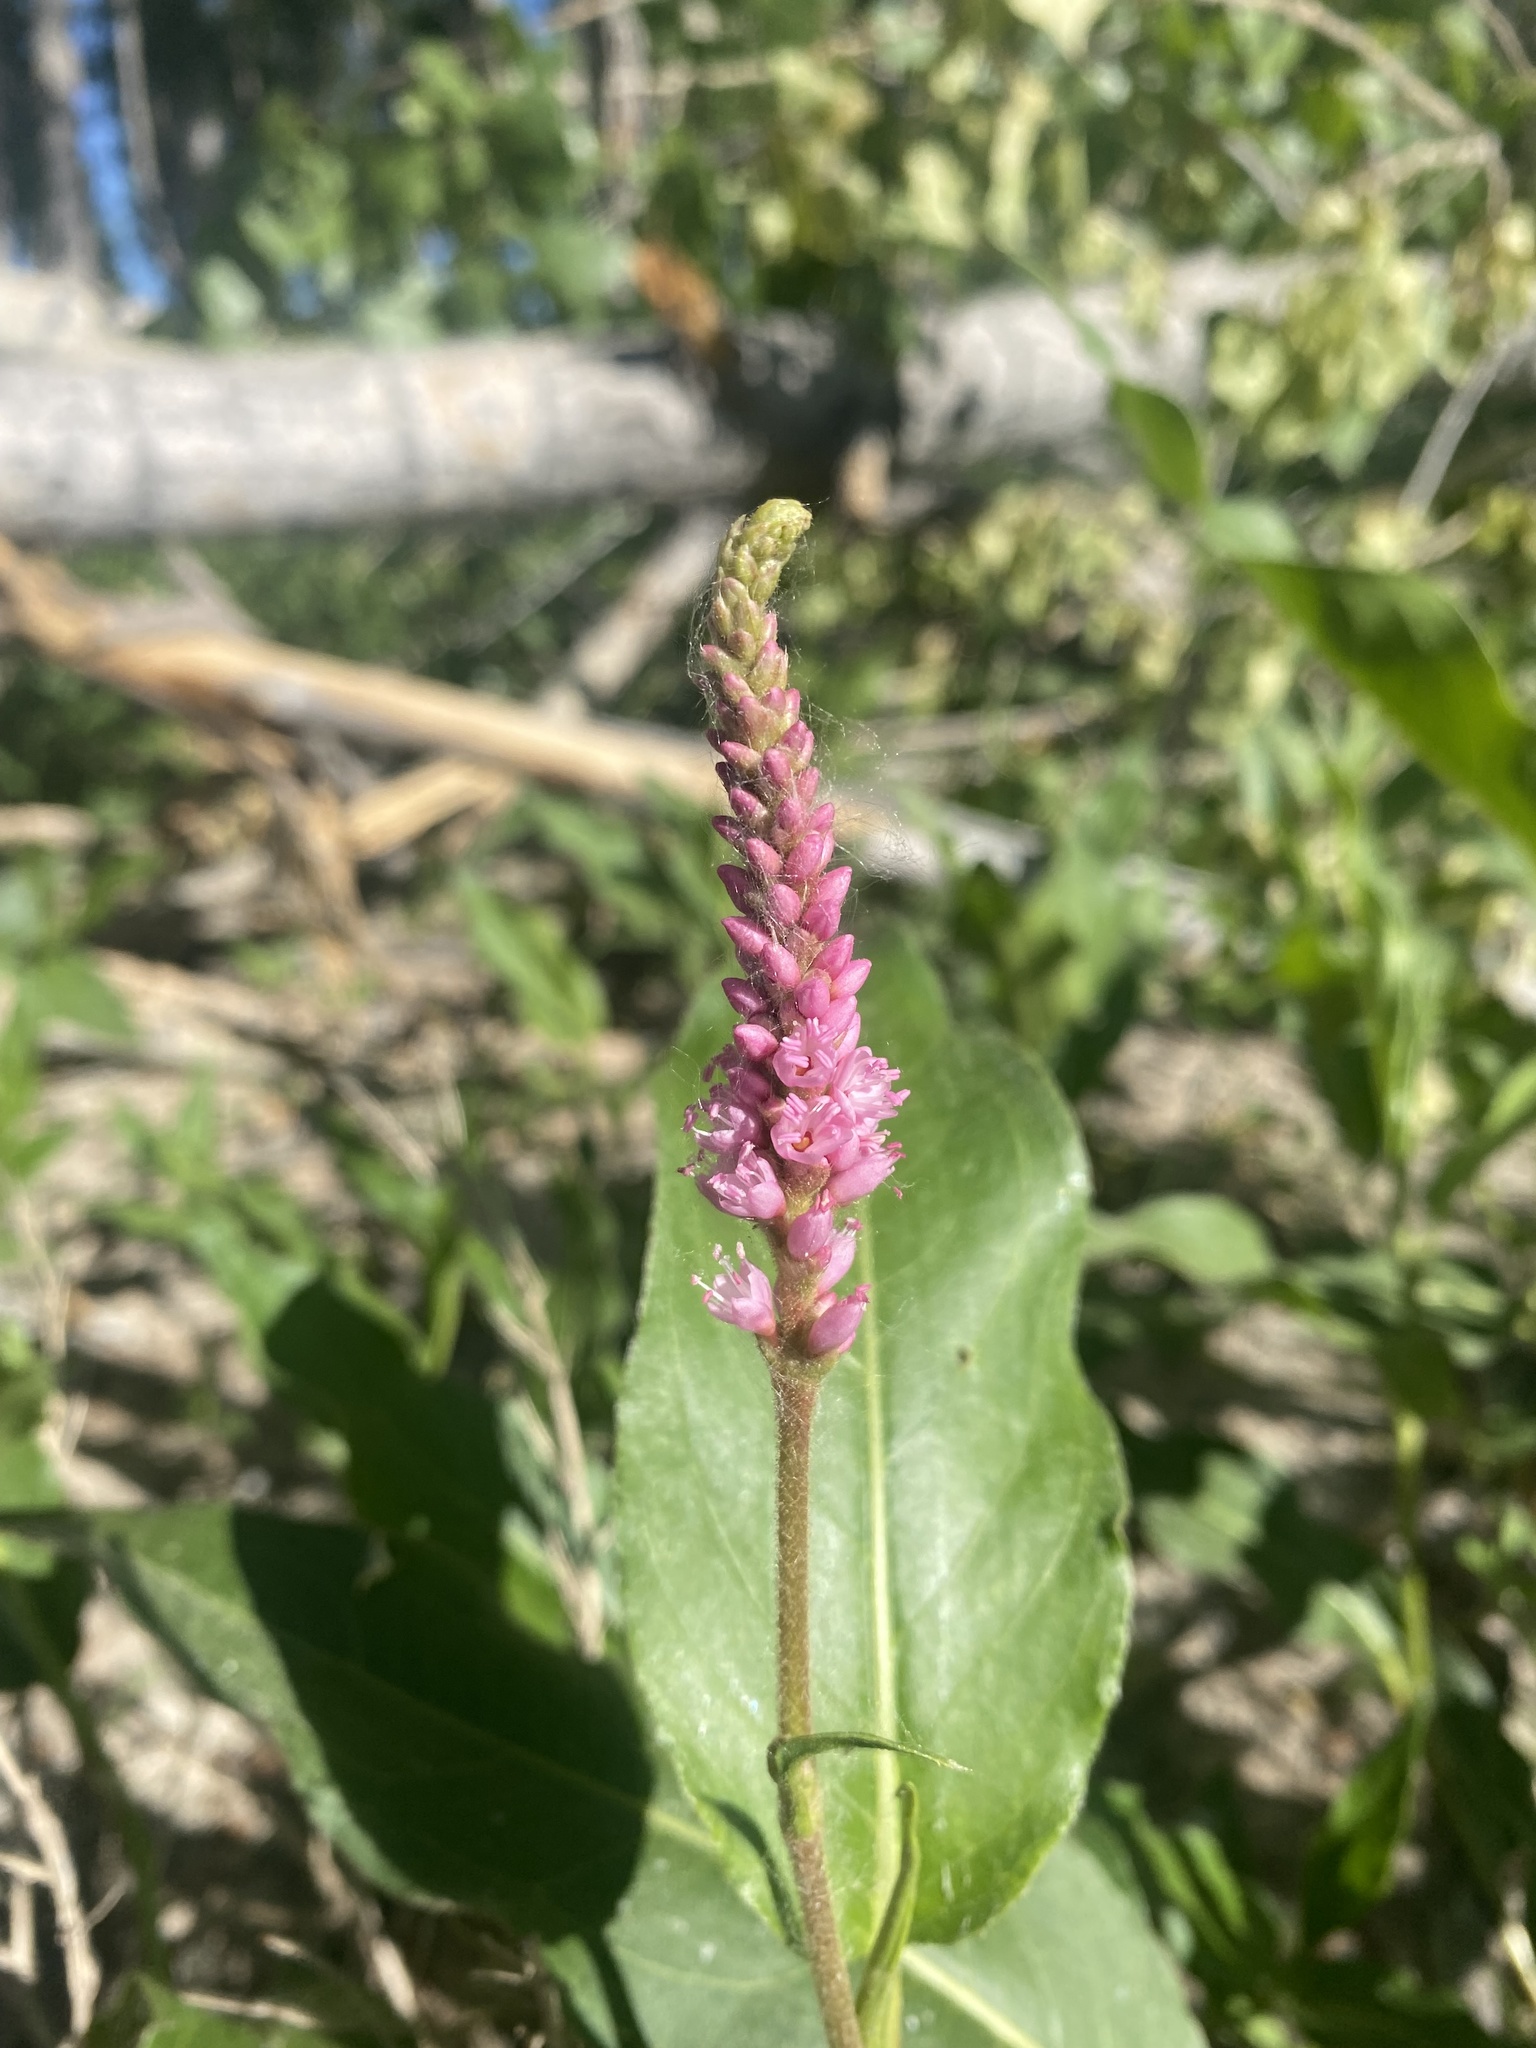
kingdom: Plantae
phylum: Tracheophyta
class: Magnoliopsida
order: Caryophyllales
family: Polygonaceae
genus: Persicaria
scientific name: Persicaria amphibia
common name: Amphibious bistort
